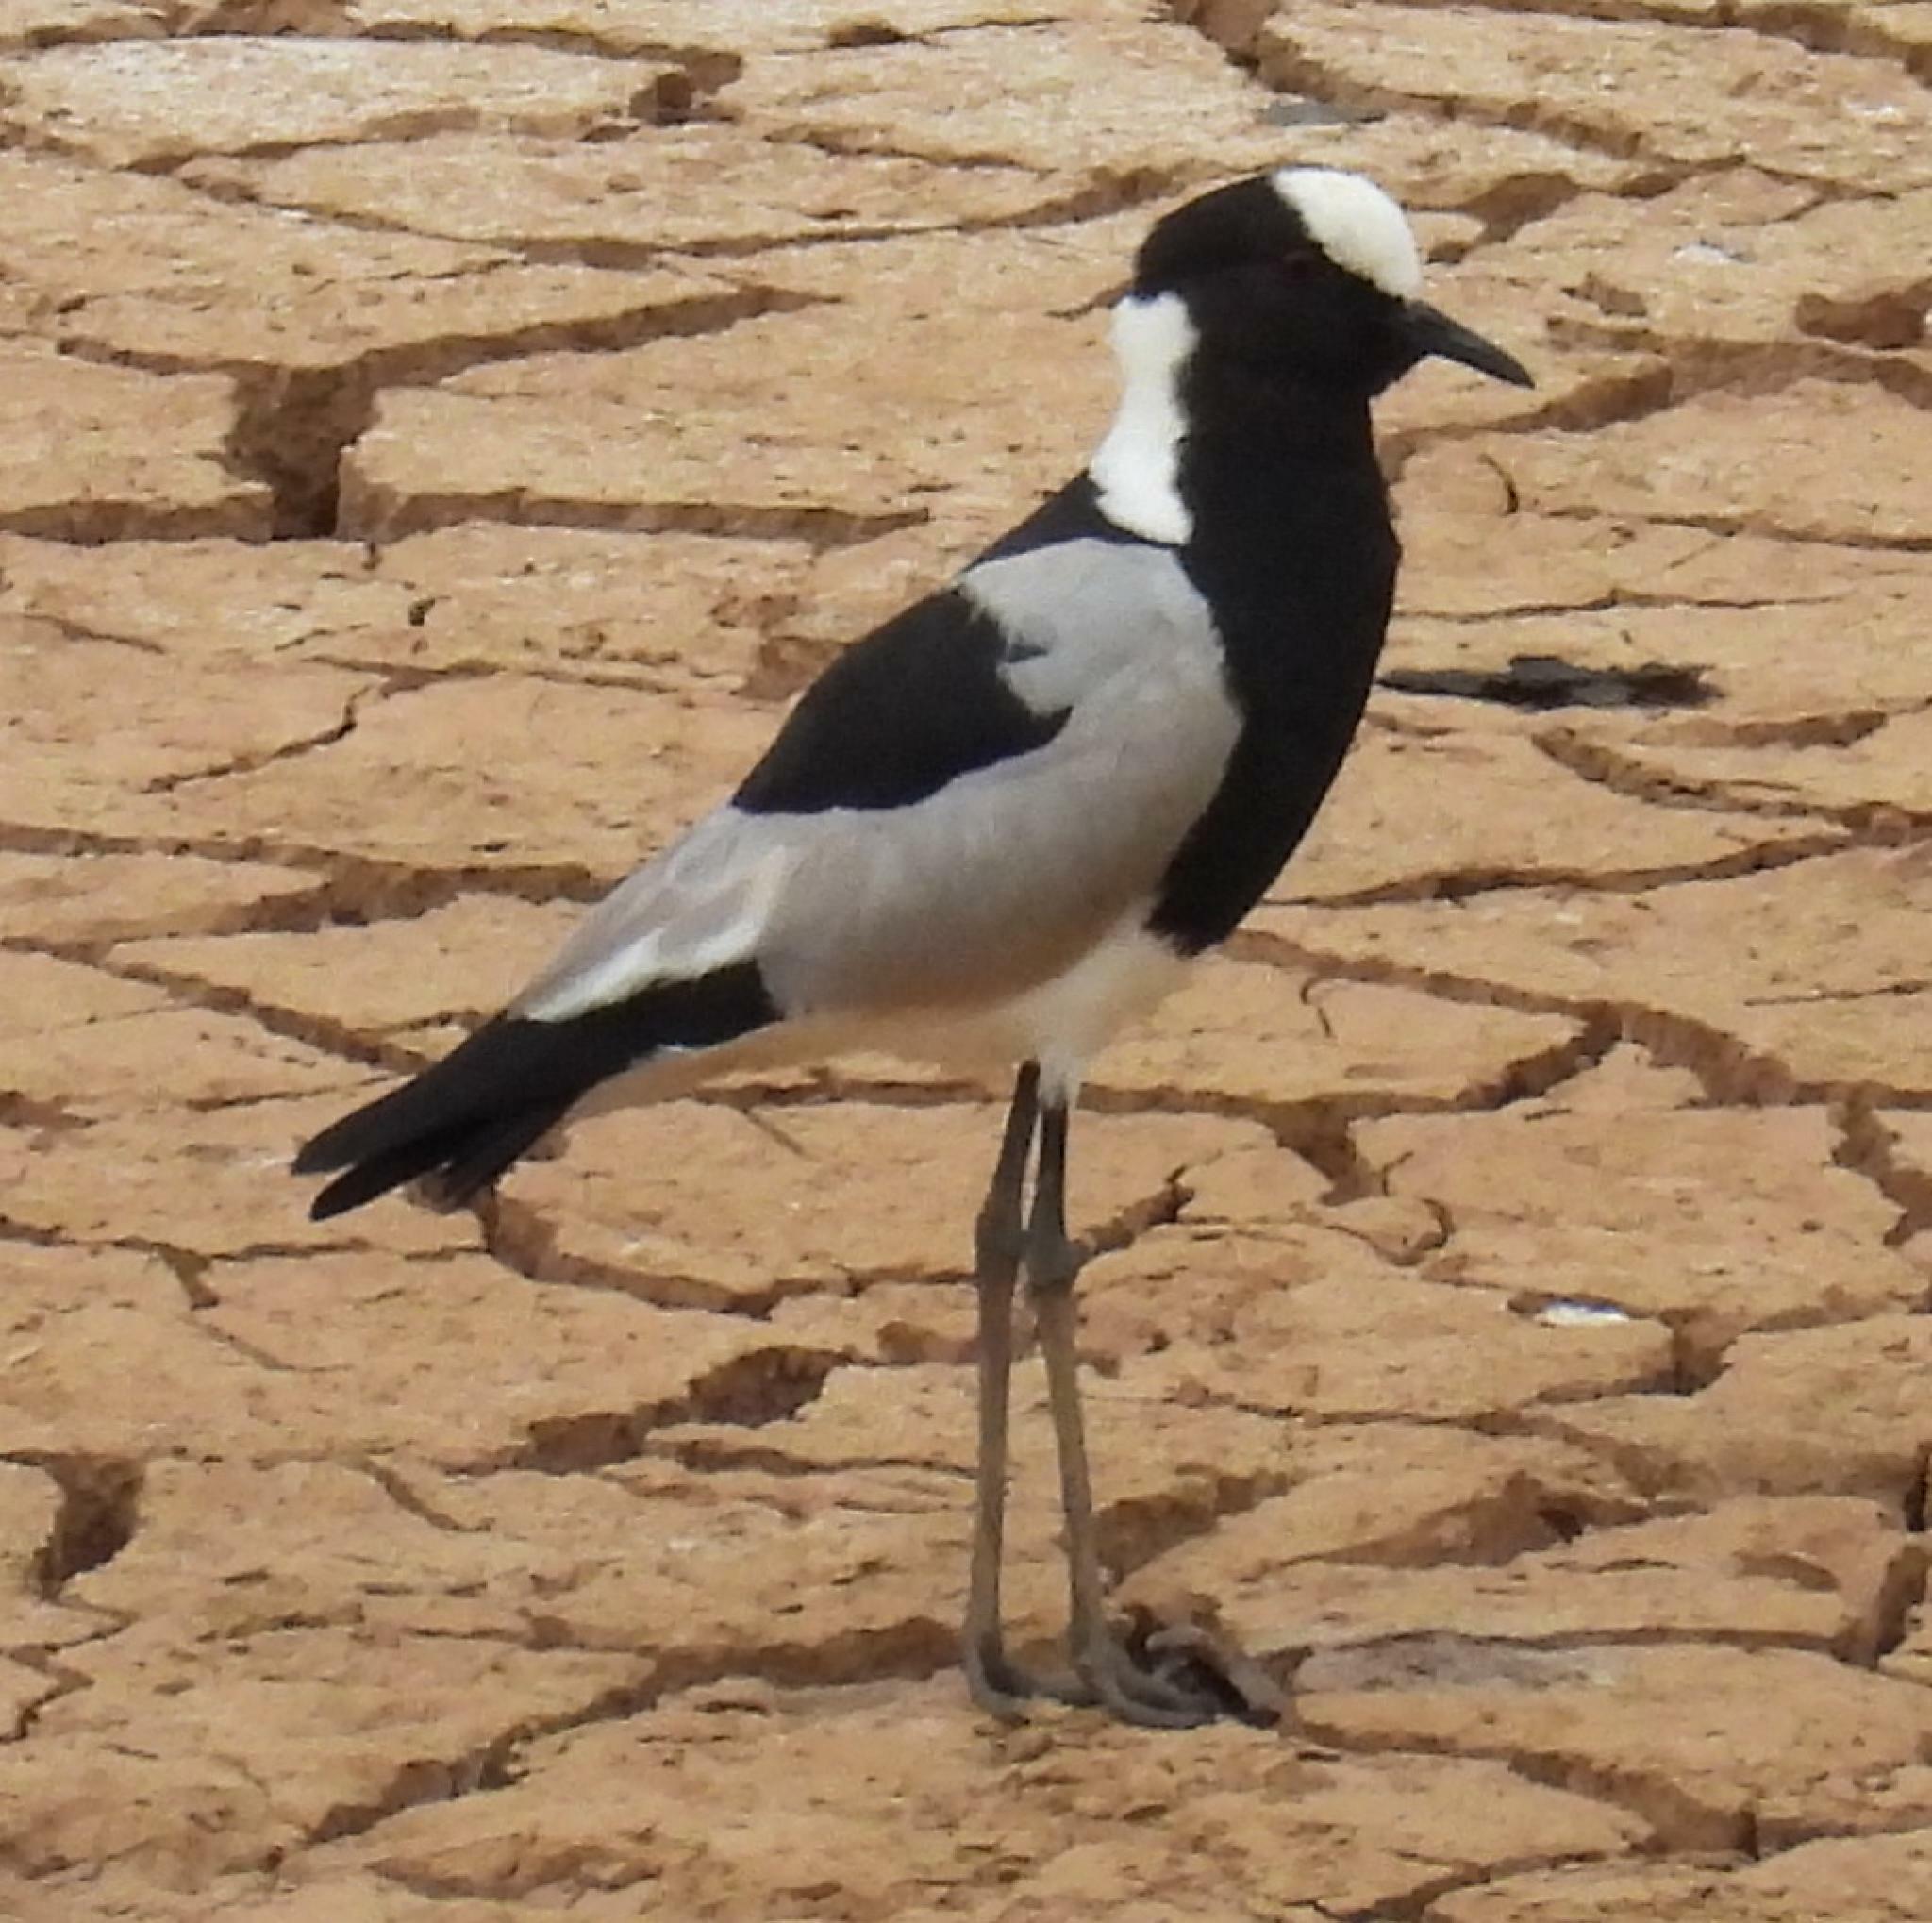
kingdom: Animalia
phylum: Chordata
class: Aves
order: Charadriiformes
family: Charadriidae
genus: Vanellus
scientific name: Vanellus armatus
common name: Blacksmith lapwing
